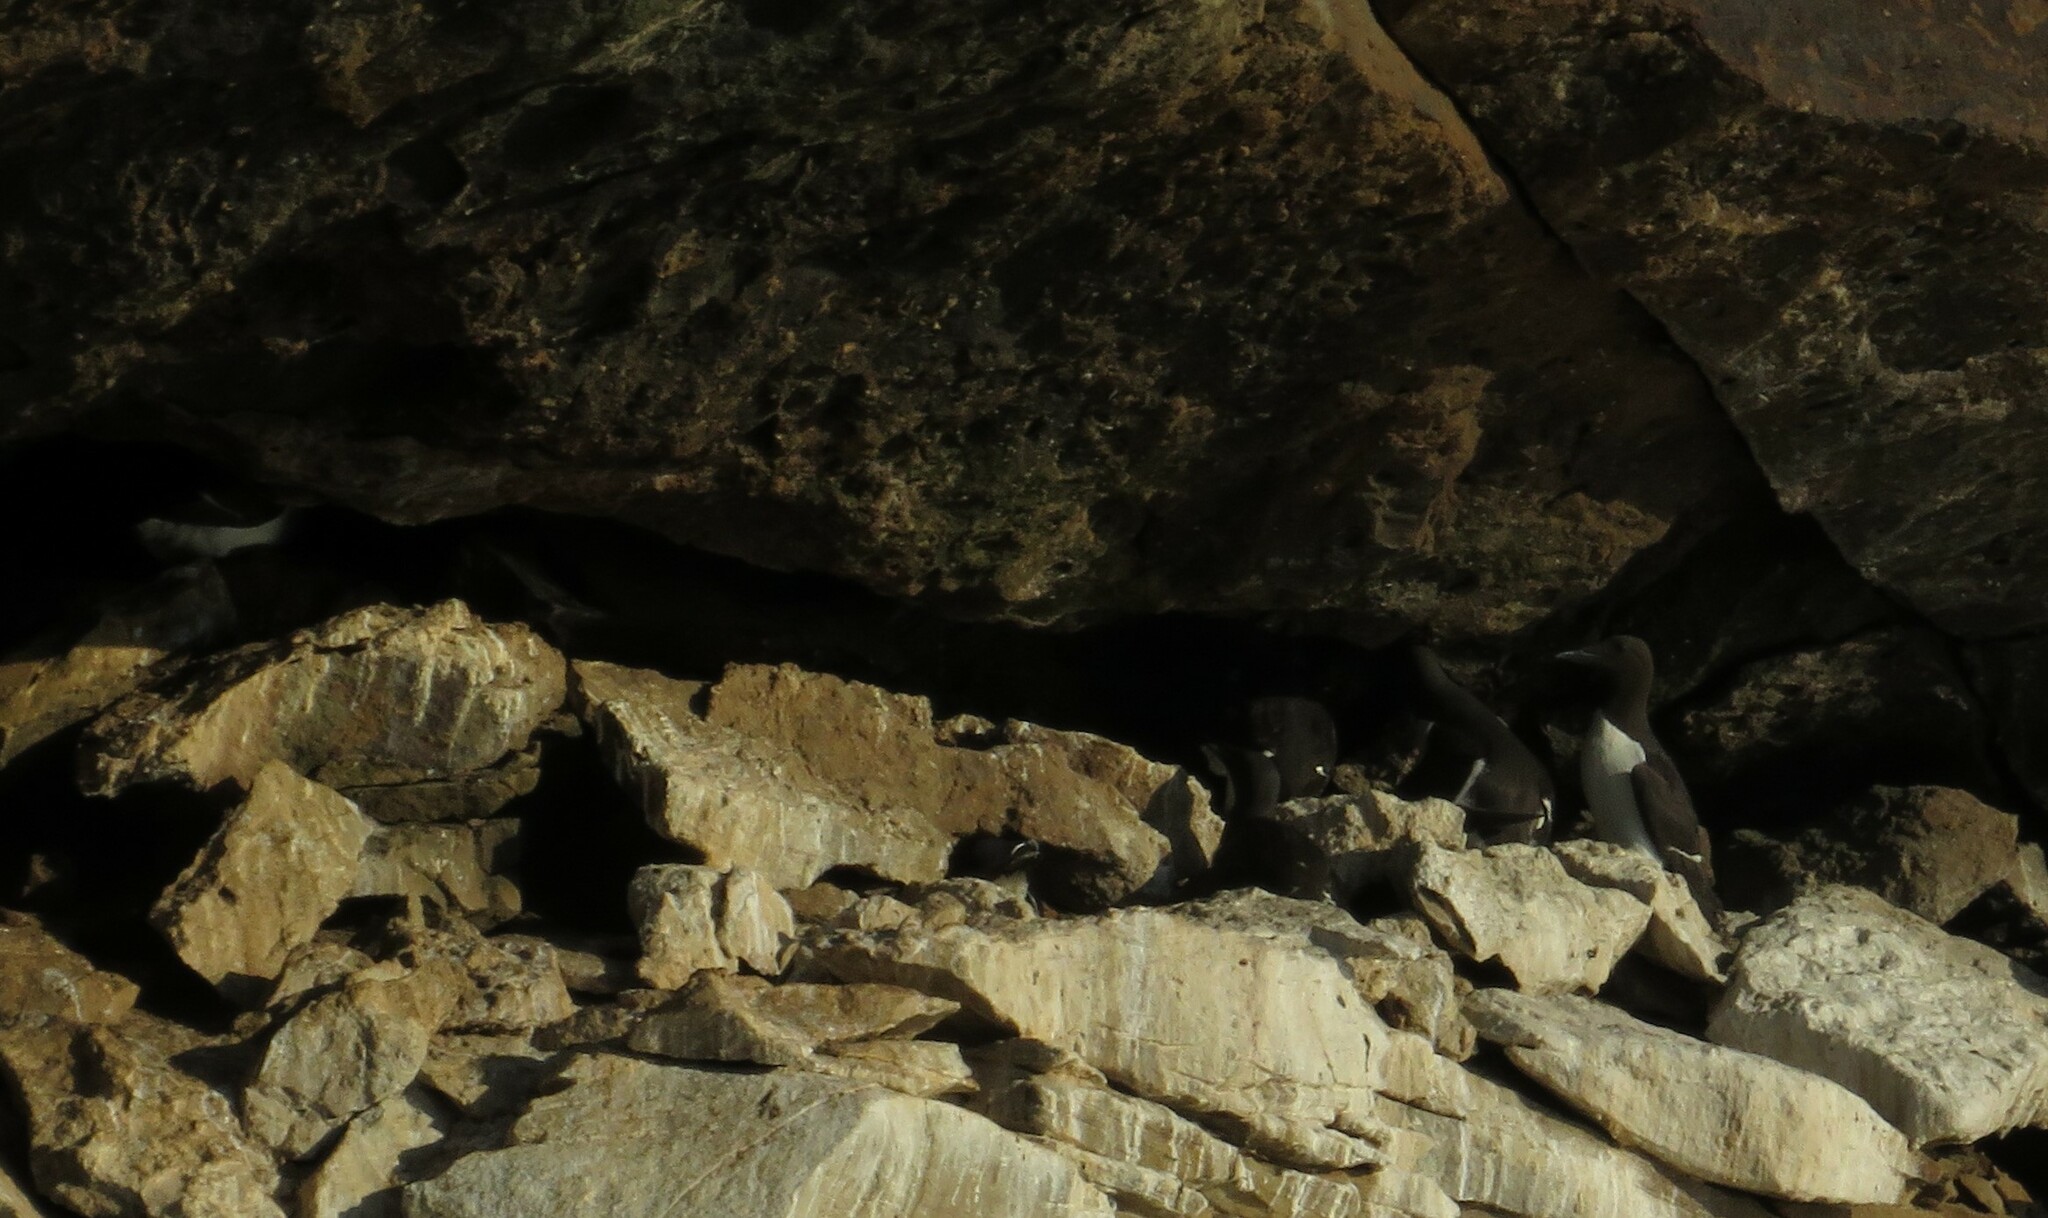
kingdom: Animalia
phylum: Chordata
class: Aves
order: Charadriiformes
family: Alcidae
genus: Uria
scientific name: Uria aalge
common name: Common murre
